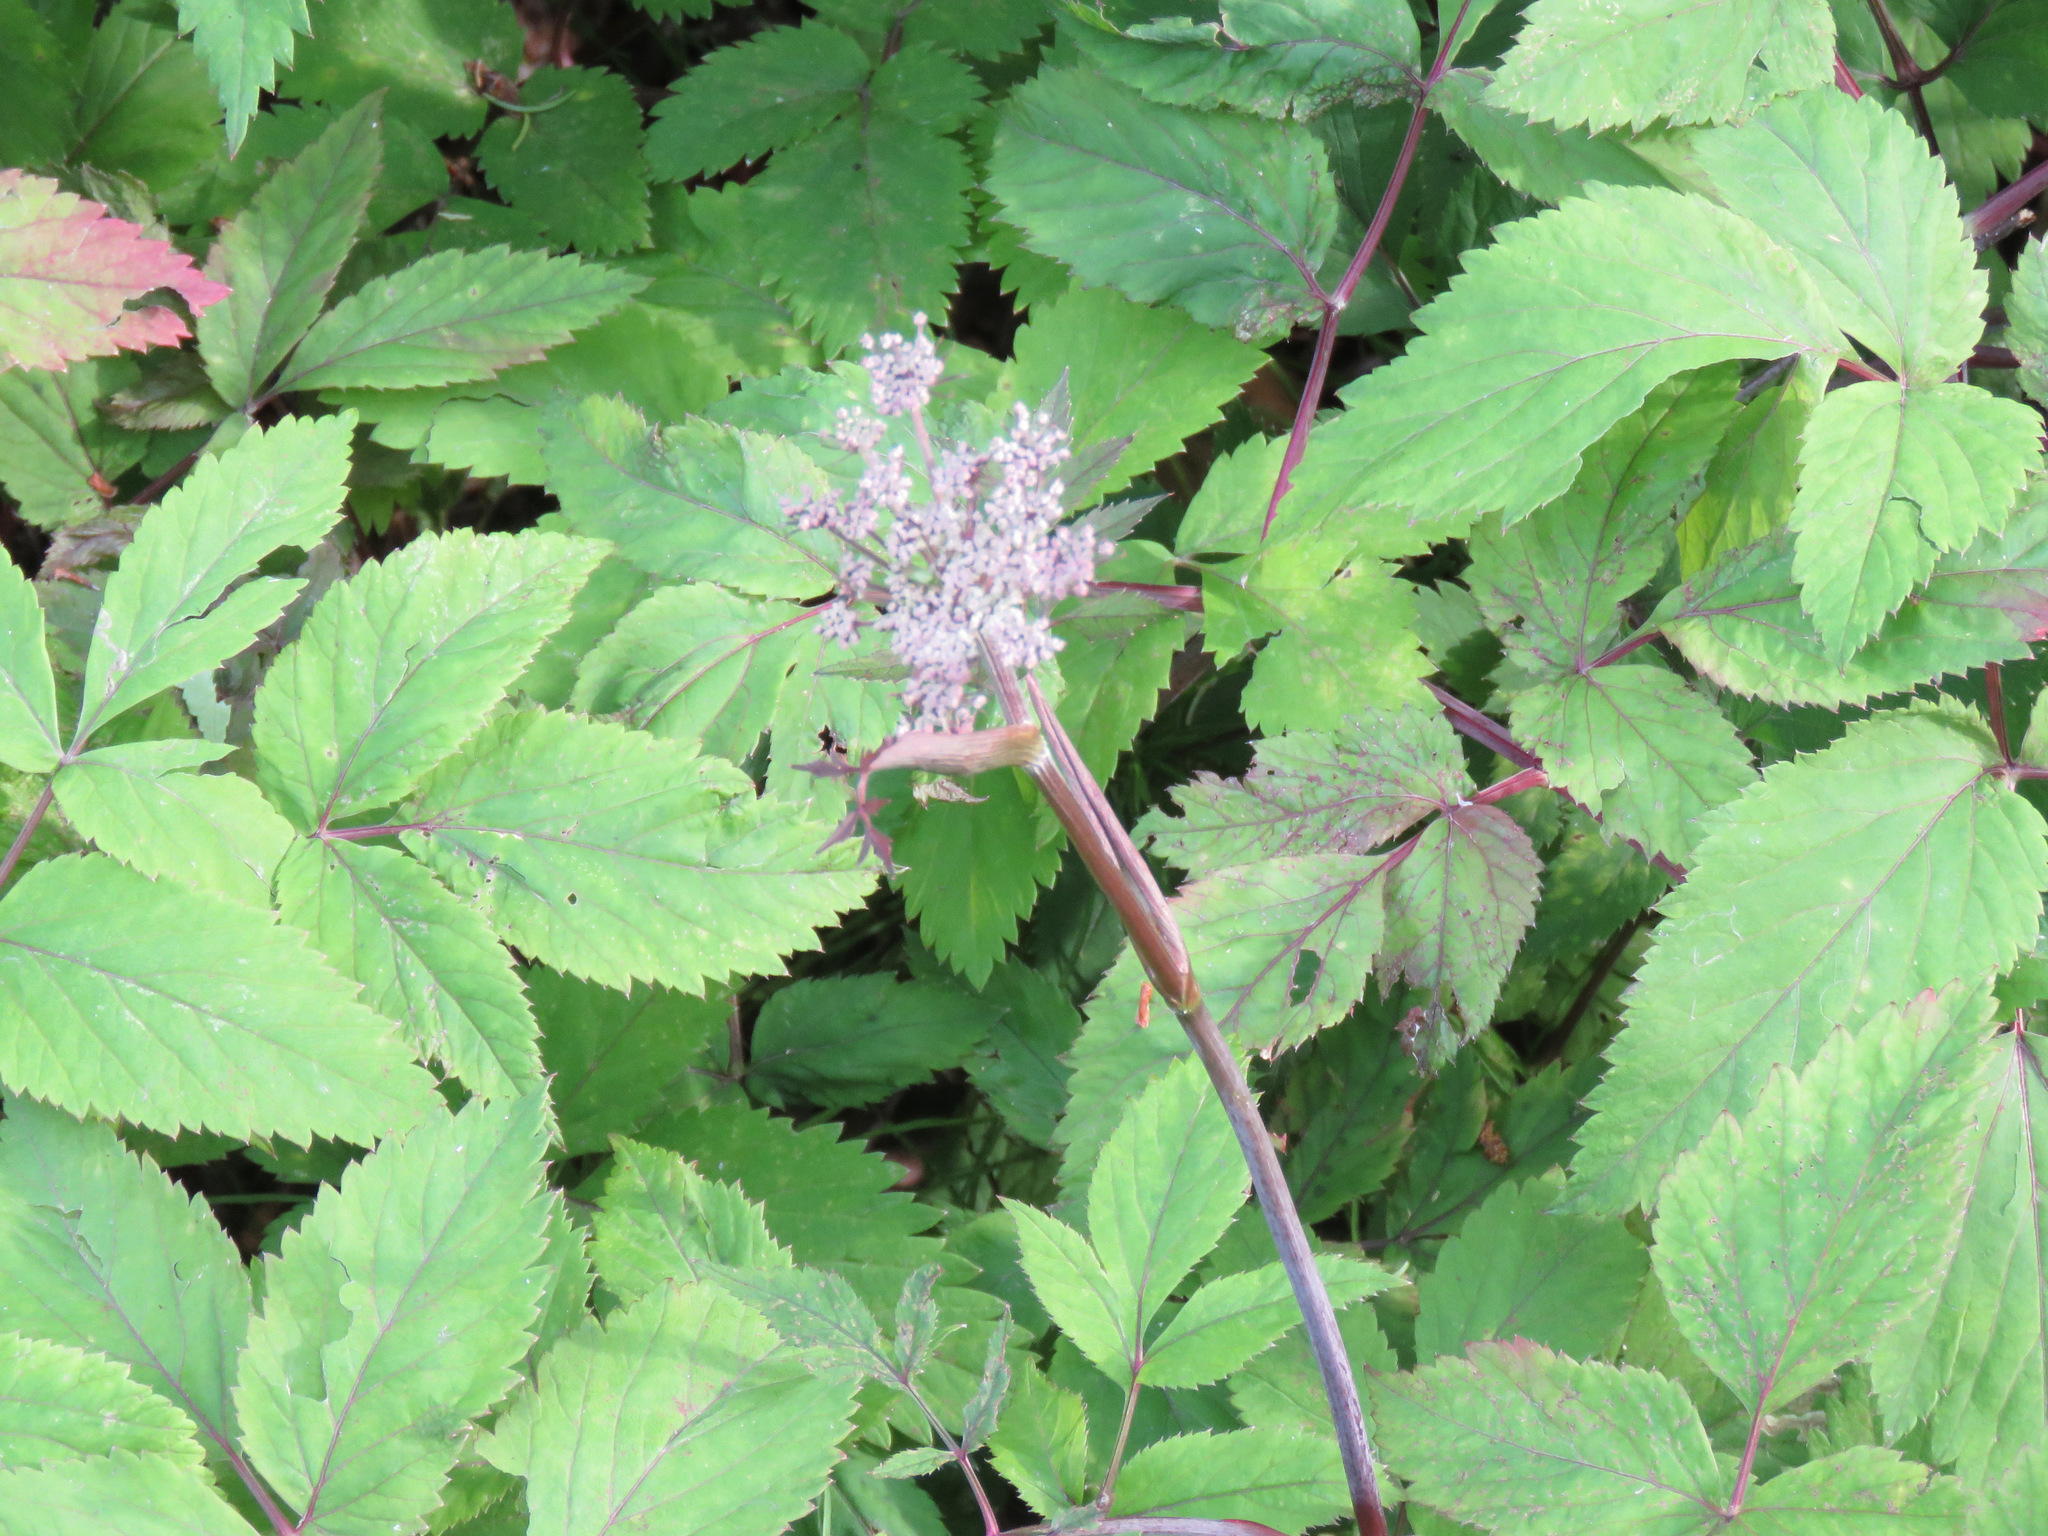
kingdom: Plantae
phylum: Tracheophyta
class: Magnoliopsida
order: Apiales
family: Apiaceae
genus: Angelica
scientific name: Angelica genuflexa
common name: Kneeling angelica
